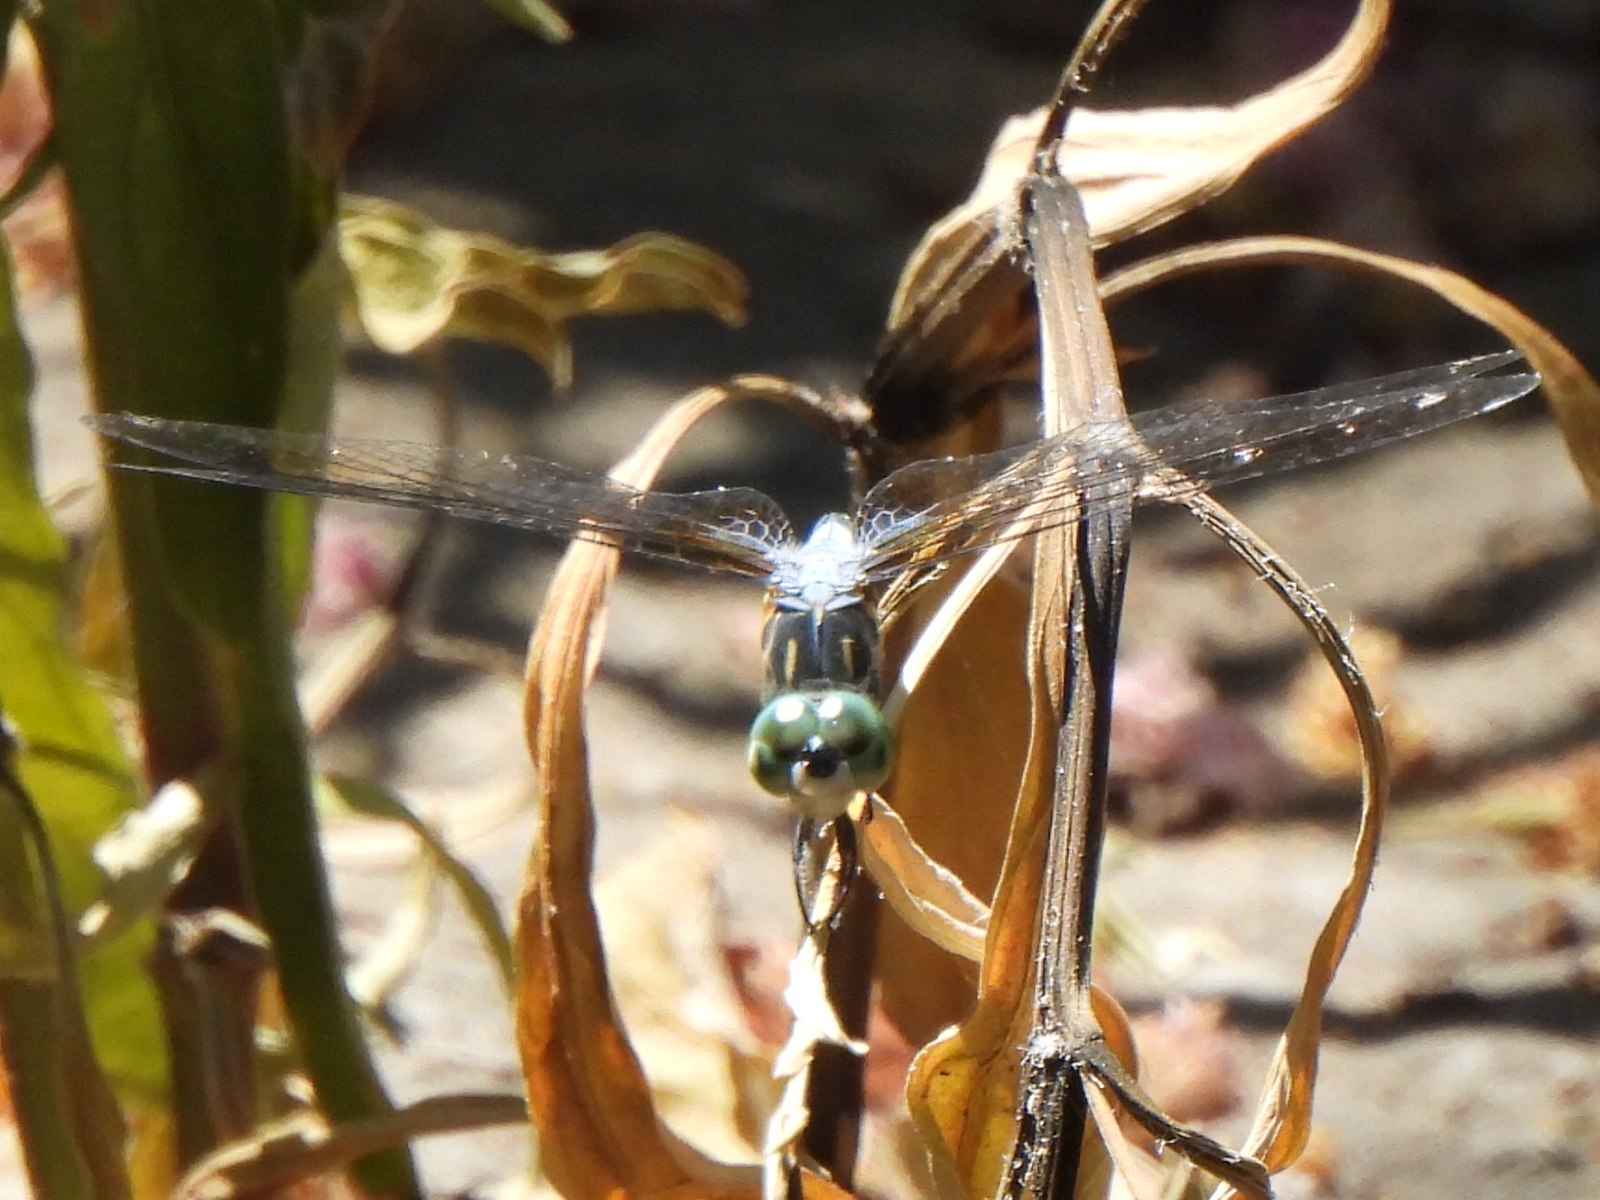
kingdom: Animalia
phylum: Arthropoda
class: Insecta
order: Odonata
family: Libellulidae
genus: Pachydiplax
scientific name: Pachydiplax longipennis
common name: Blue dasher
